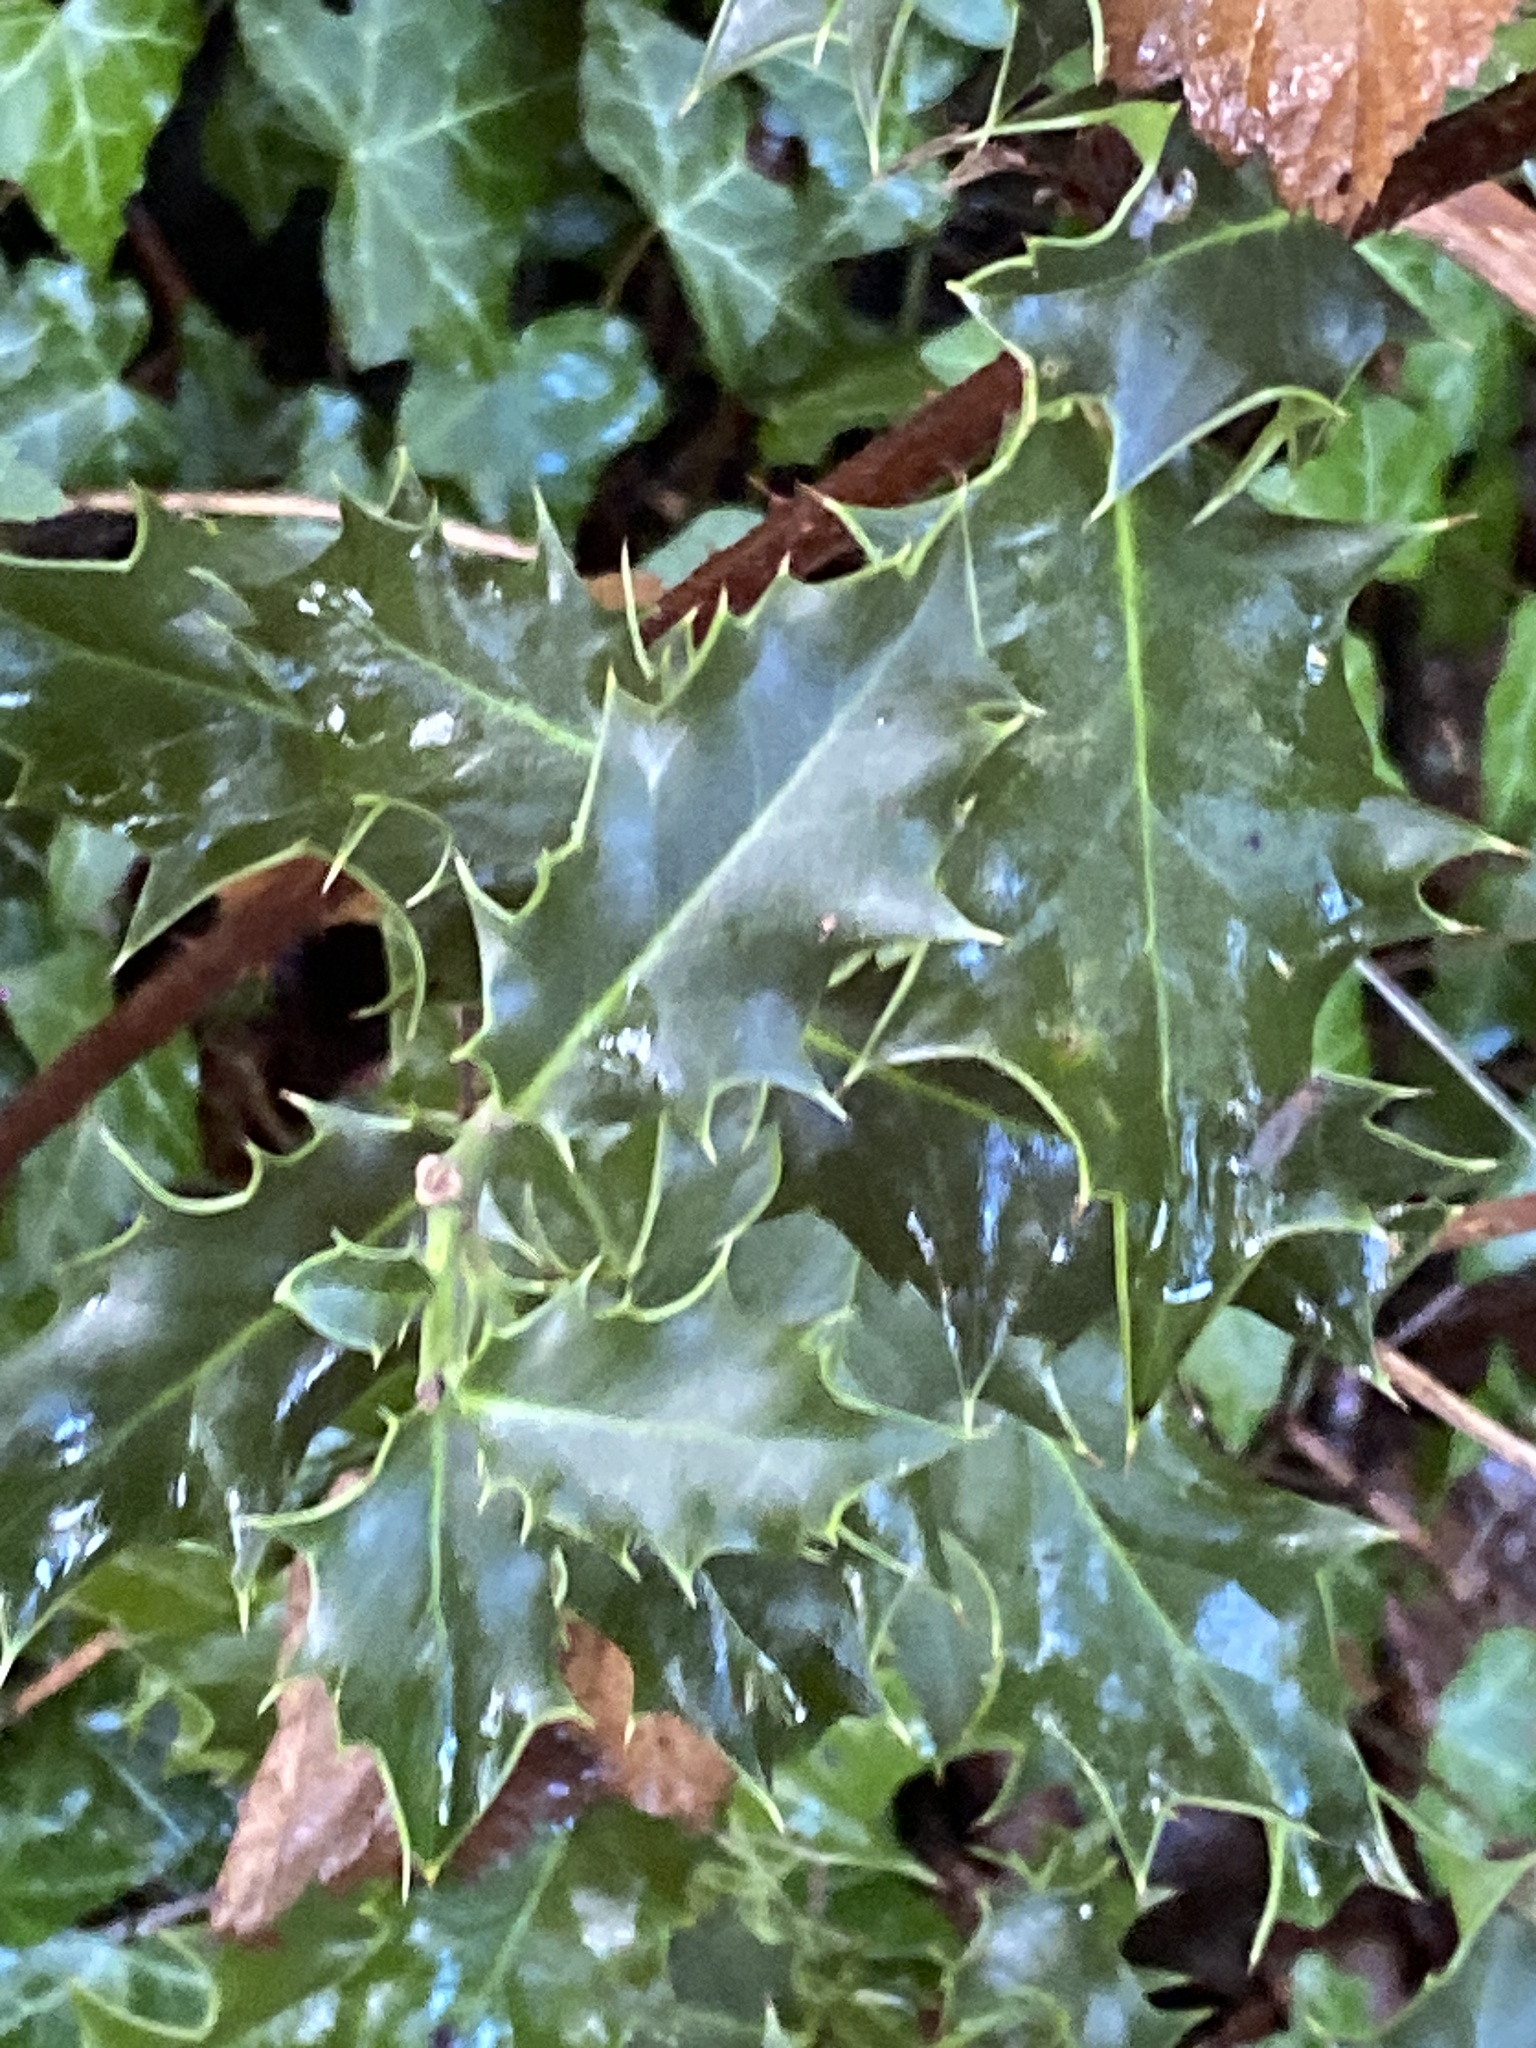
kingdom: Plantae
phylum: Tracheophyta
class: Magnoliopsida
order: Aquifoliales
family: Aquifoliaceae
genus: Ilex
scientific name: Ilex aquifolium
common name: English holly
